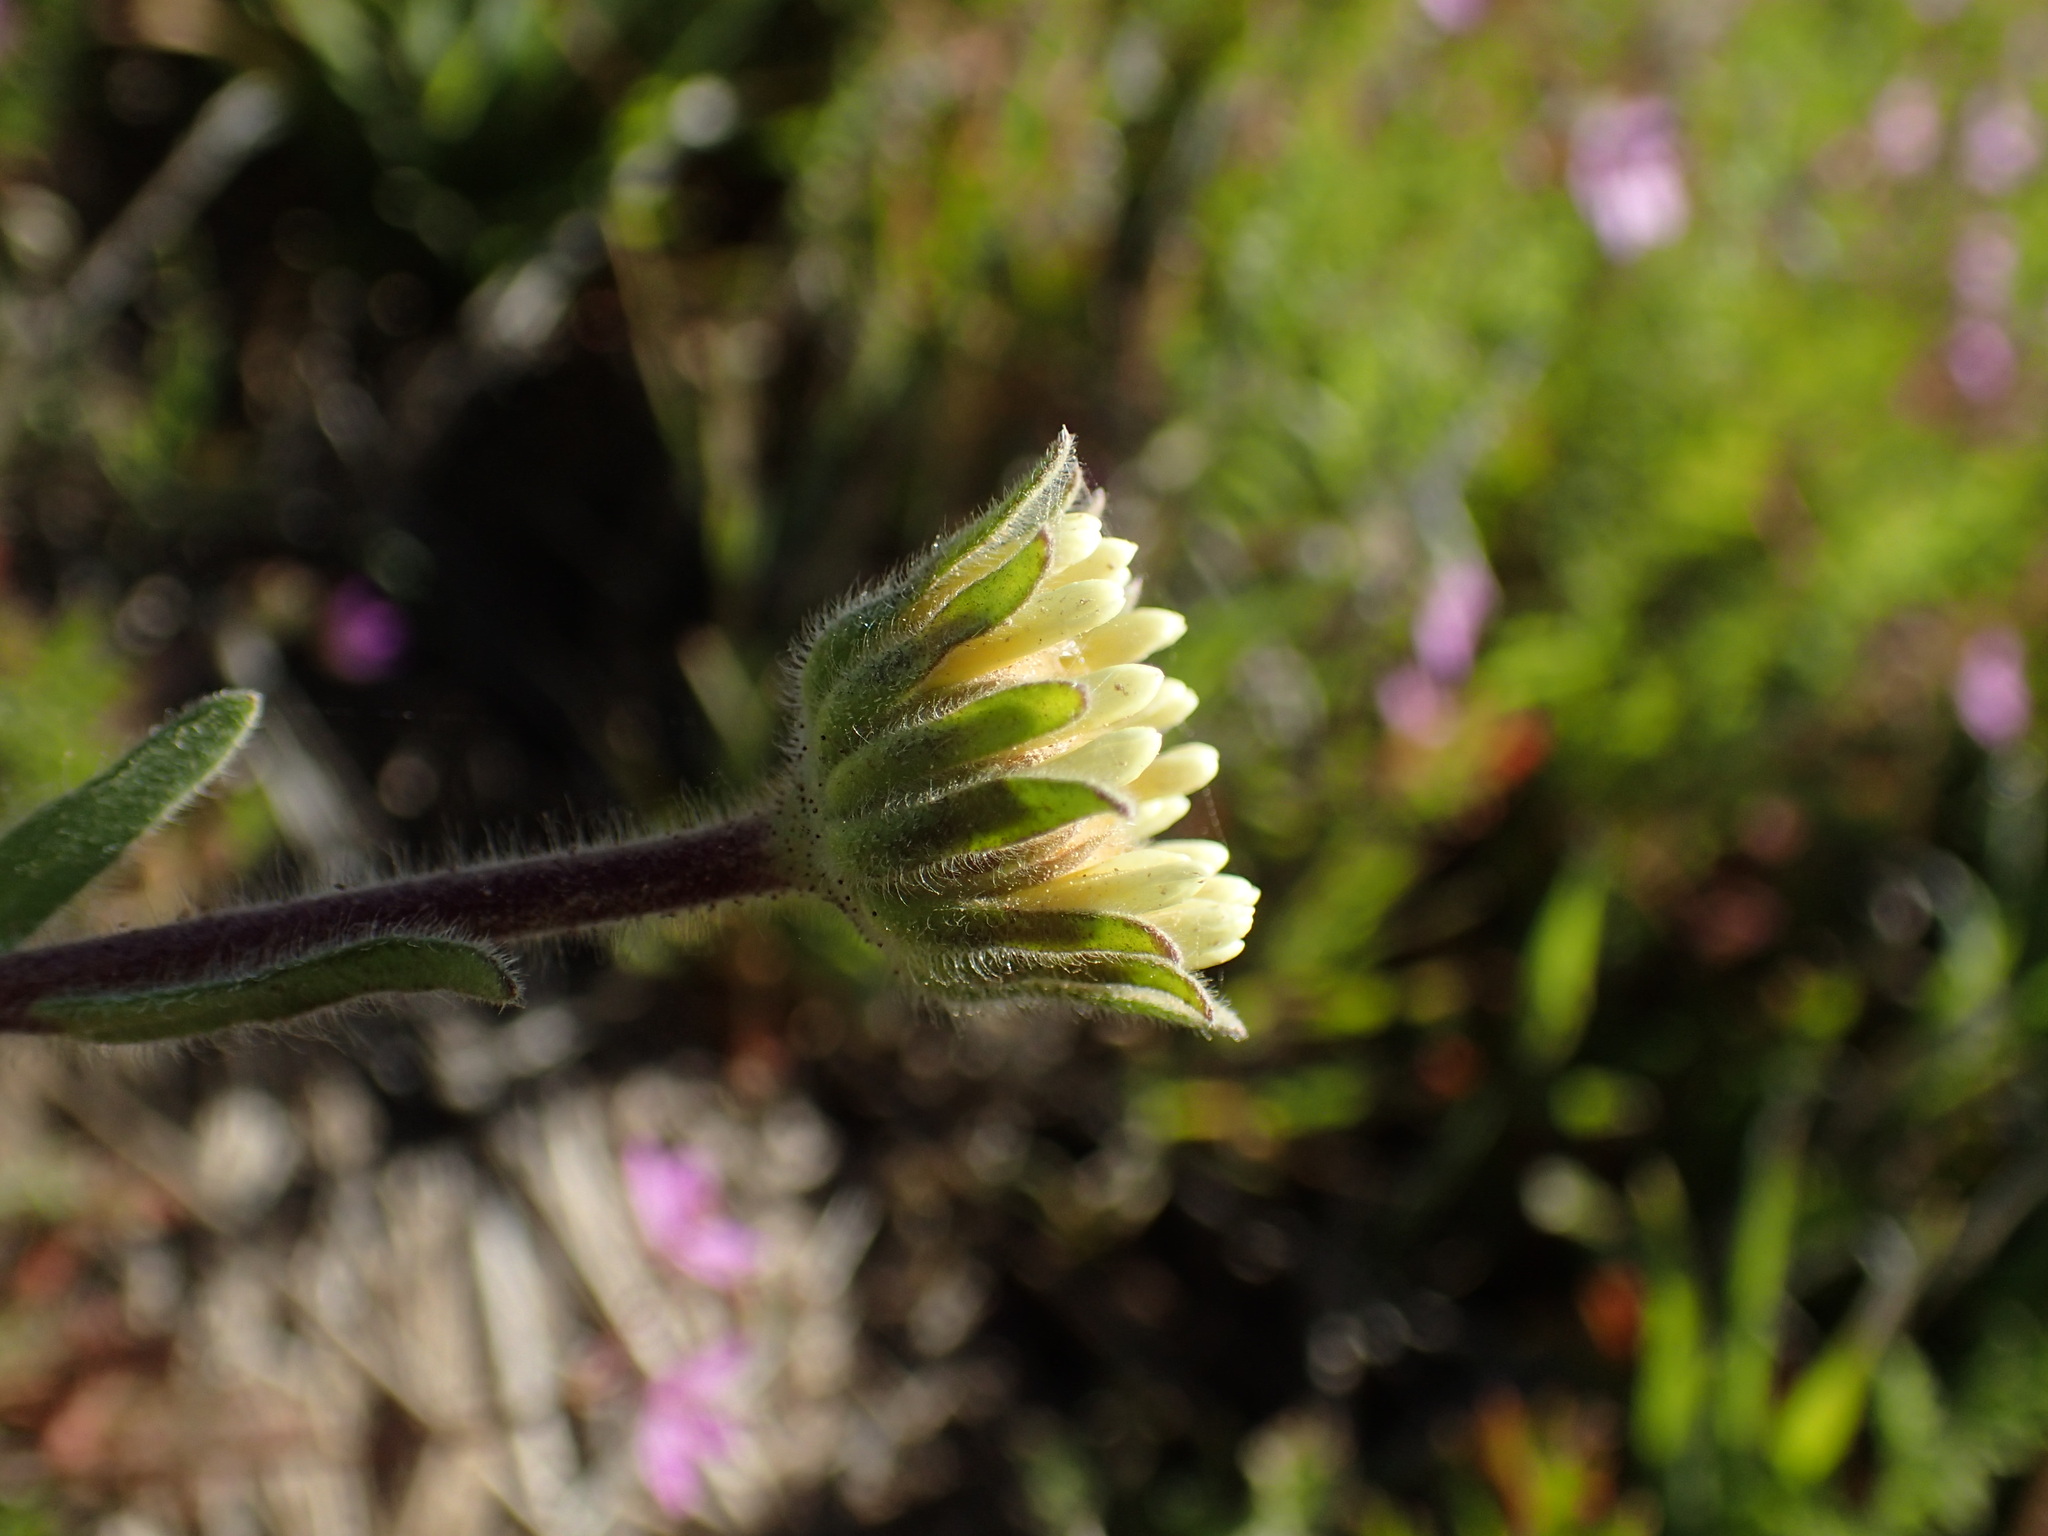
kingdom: Plantae
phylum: Tracheophyta
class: Magnoliopsida
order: Asterales
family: Asteraceae
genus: Layia
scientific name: Layia platyglossa
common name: Tidy-tips
